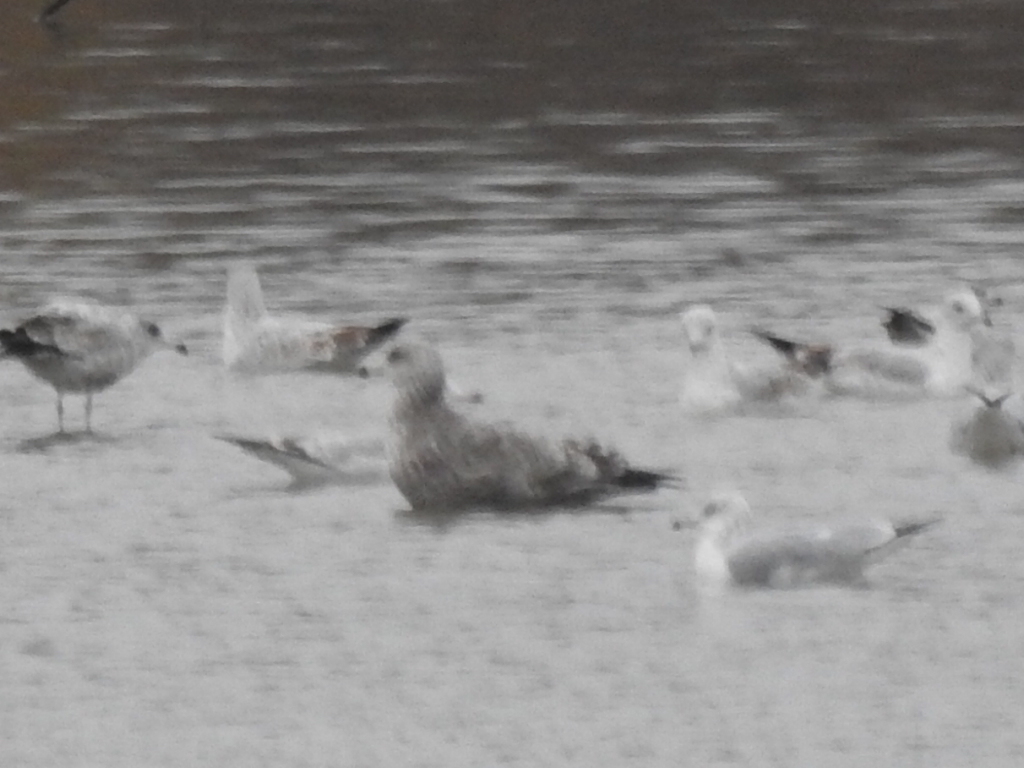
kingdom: Animalia
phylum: Chordata
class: Aves
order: Charadriiformes
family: Laridae
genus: Larus
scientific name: Larus argentatus
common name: Herring gull
